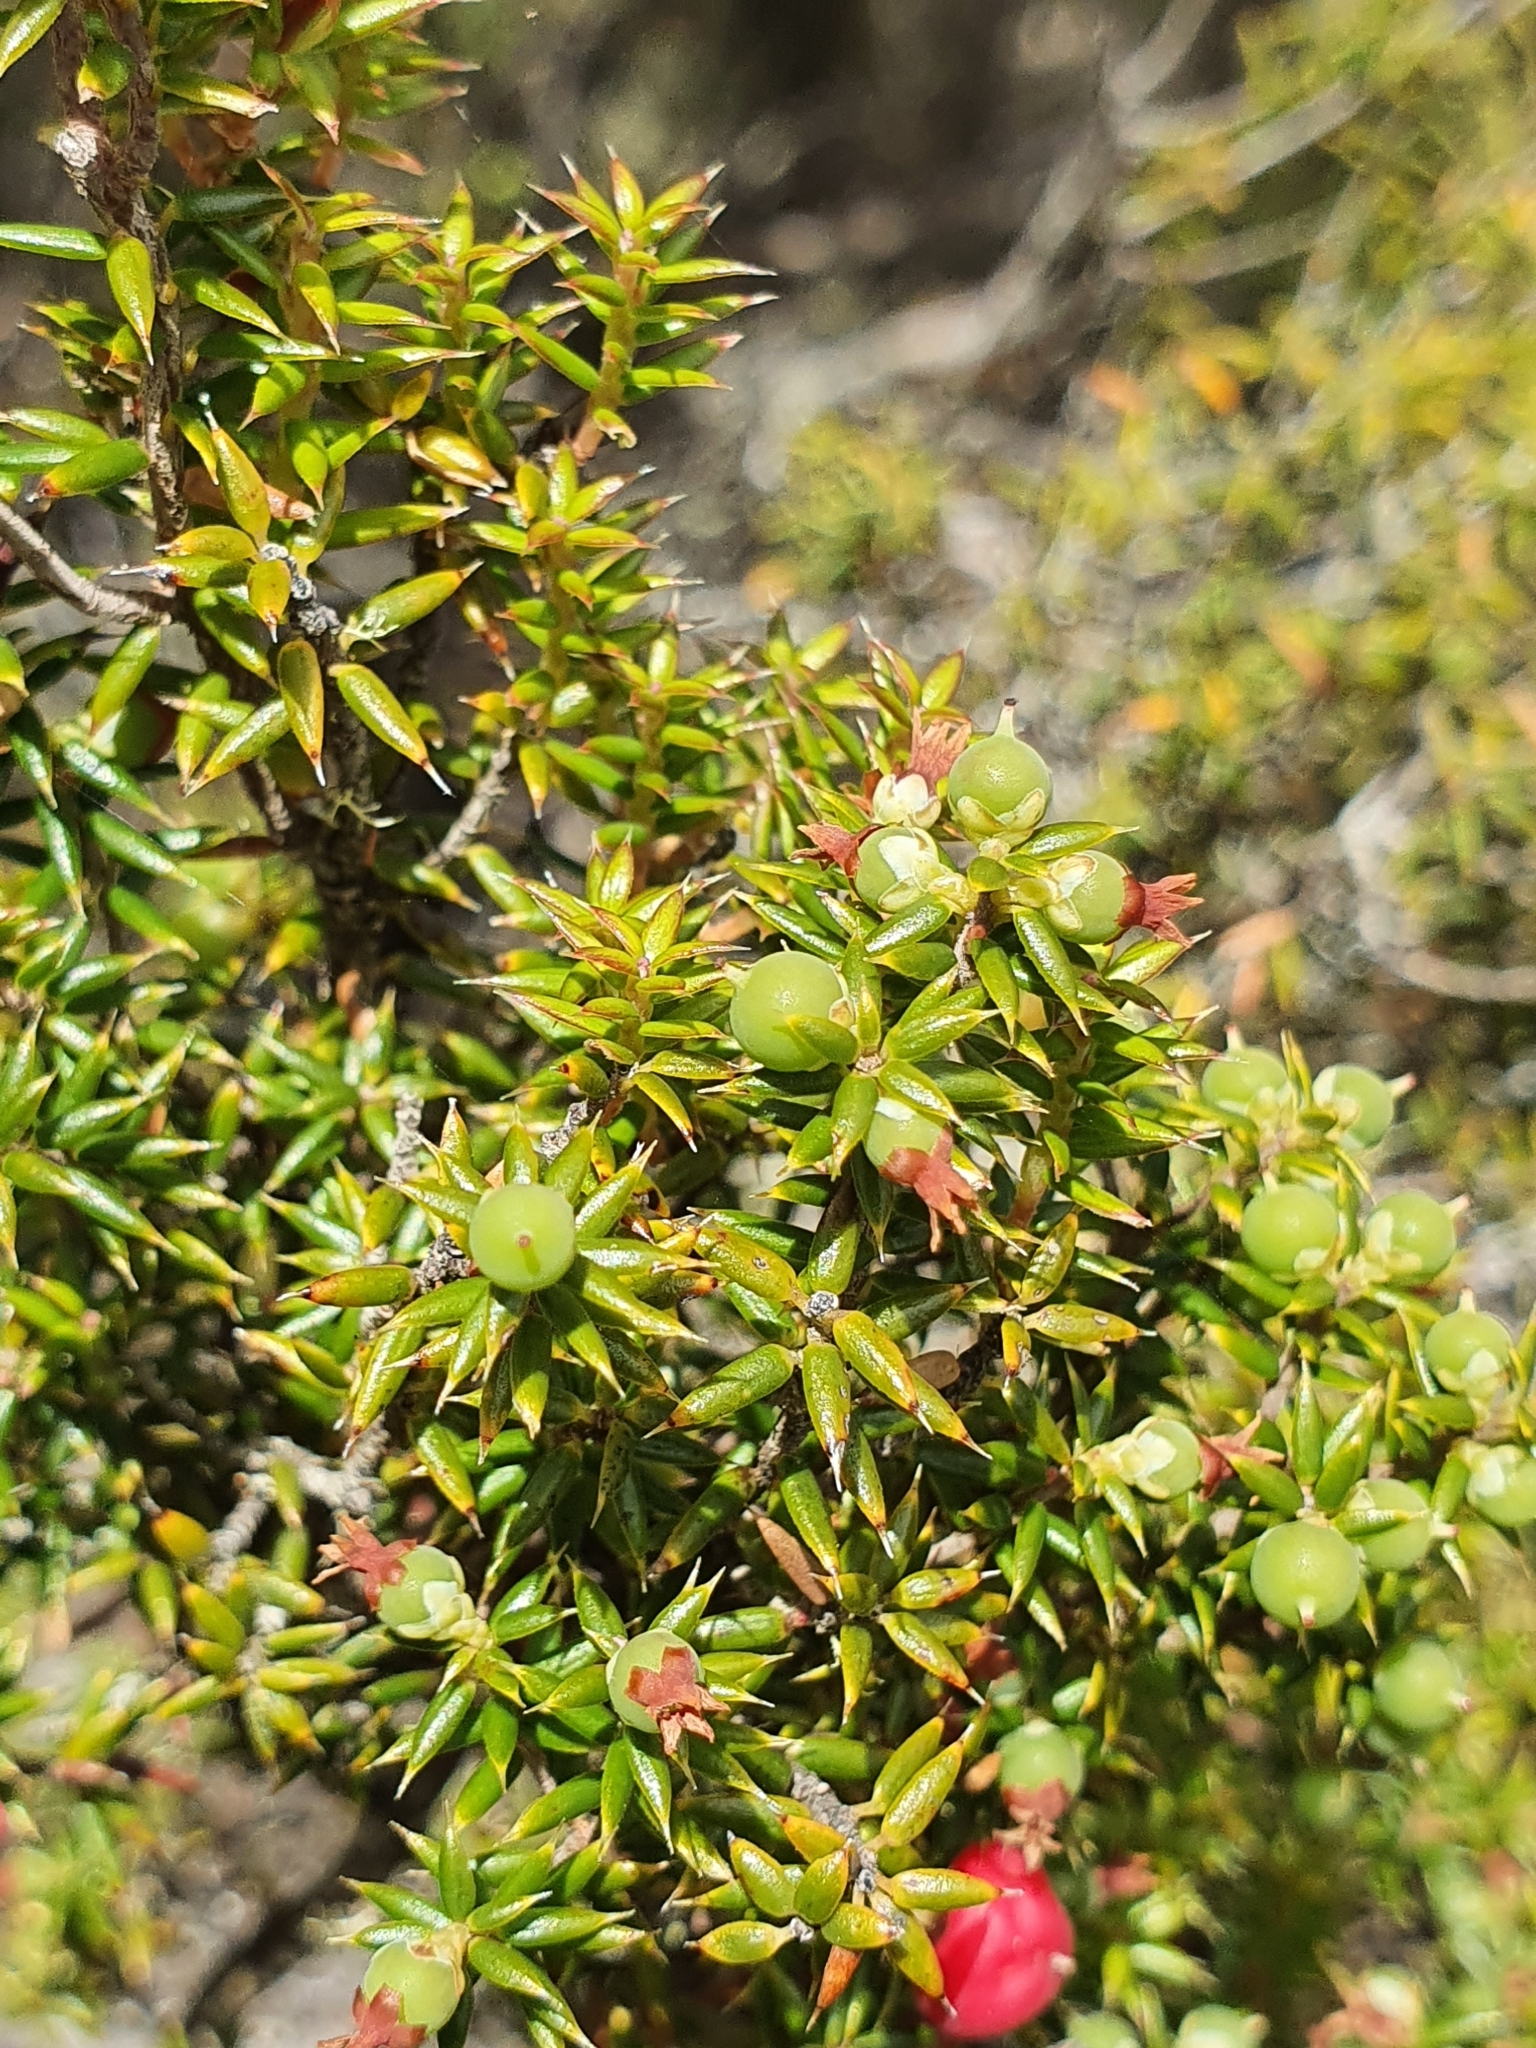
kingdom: Plantae
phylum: Tracheophyta
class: Magnoliopsida
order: Ericales
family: Ericaceae
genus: Leptecophylla
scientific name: Leptecophylla parvifolia
